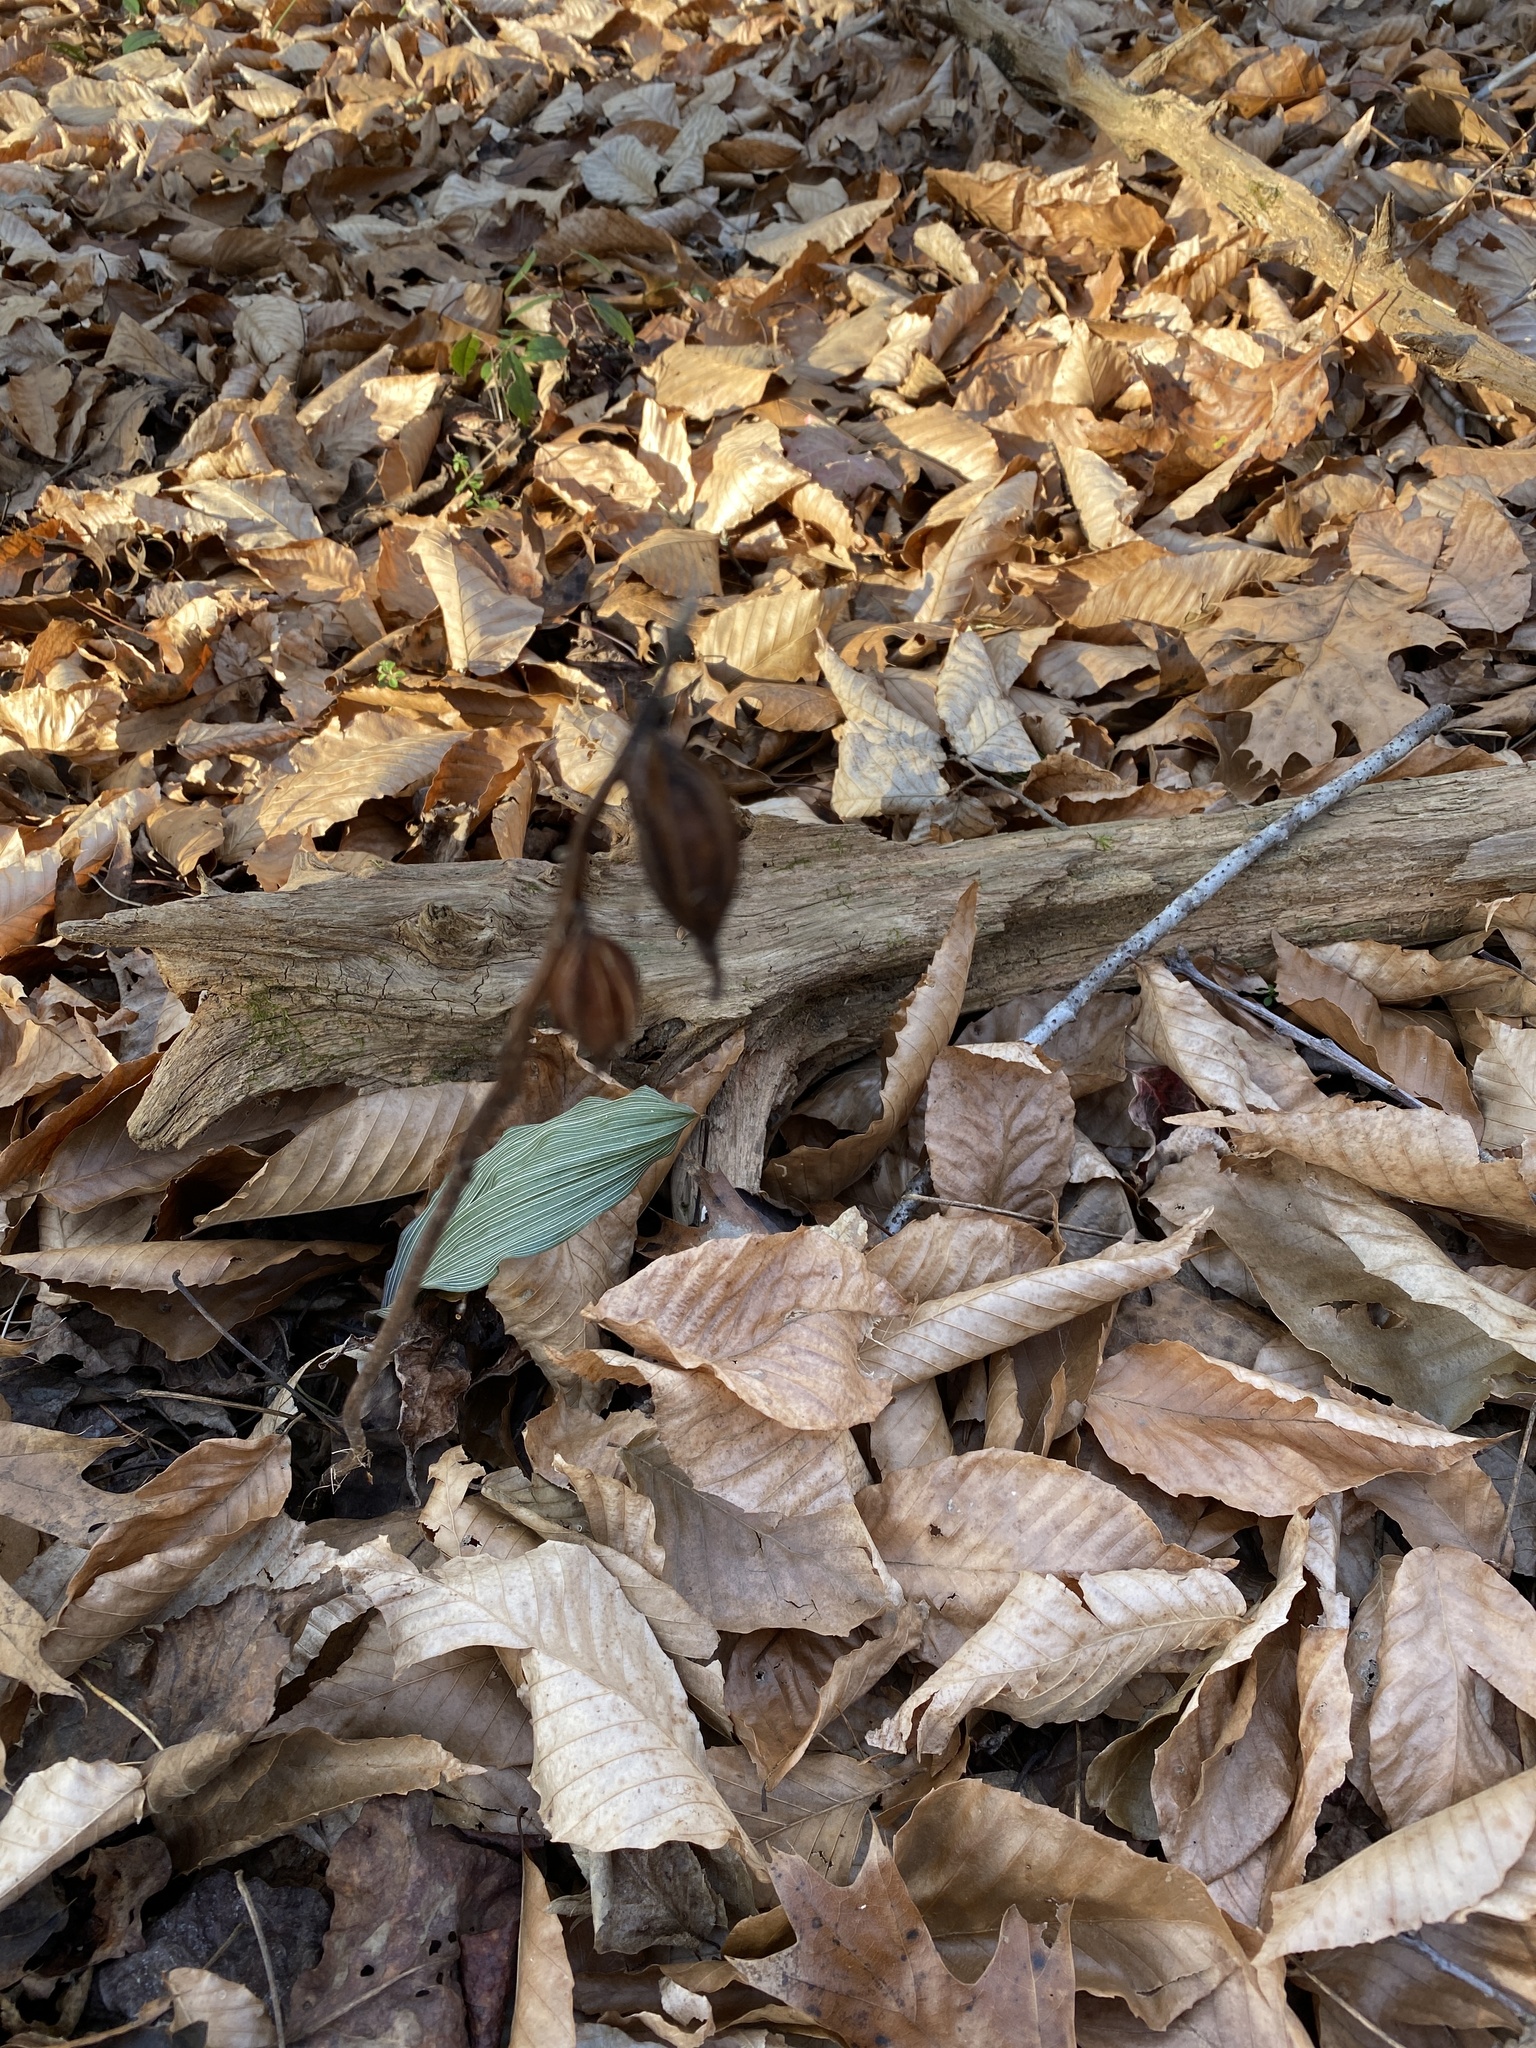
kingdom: Plantae
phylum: Tracheophyta
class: Liliopsida
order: Asparagales
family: Orchidaceae
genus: Aplectrum
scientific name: Aplectrum hyemale
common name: Adam-and-eve
